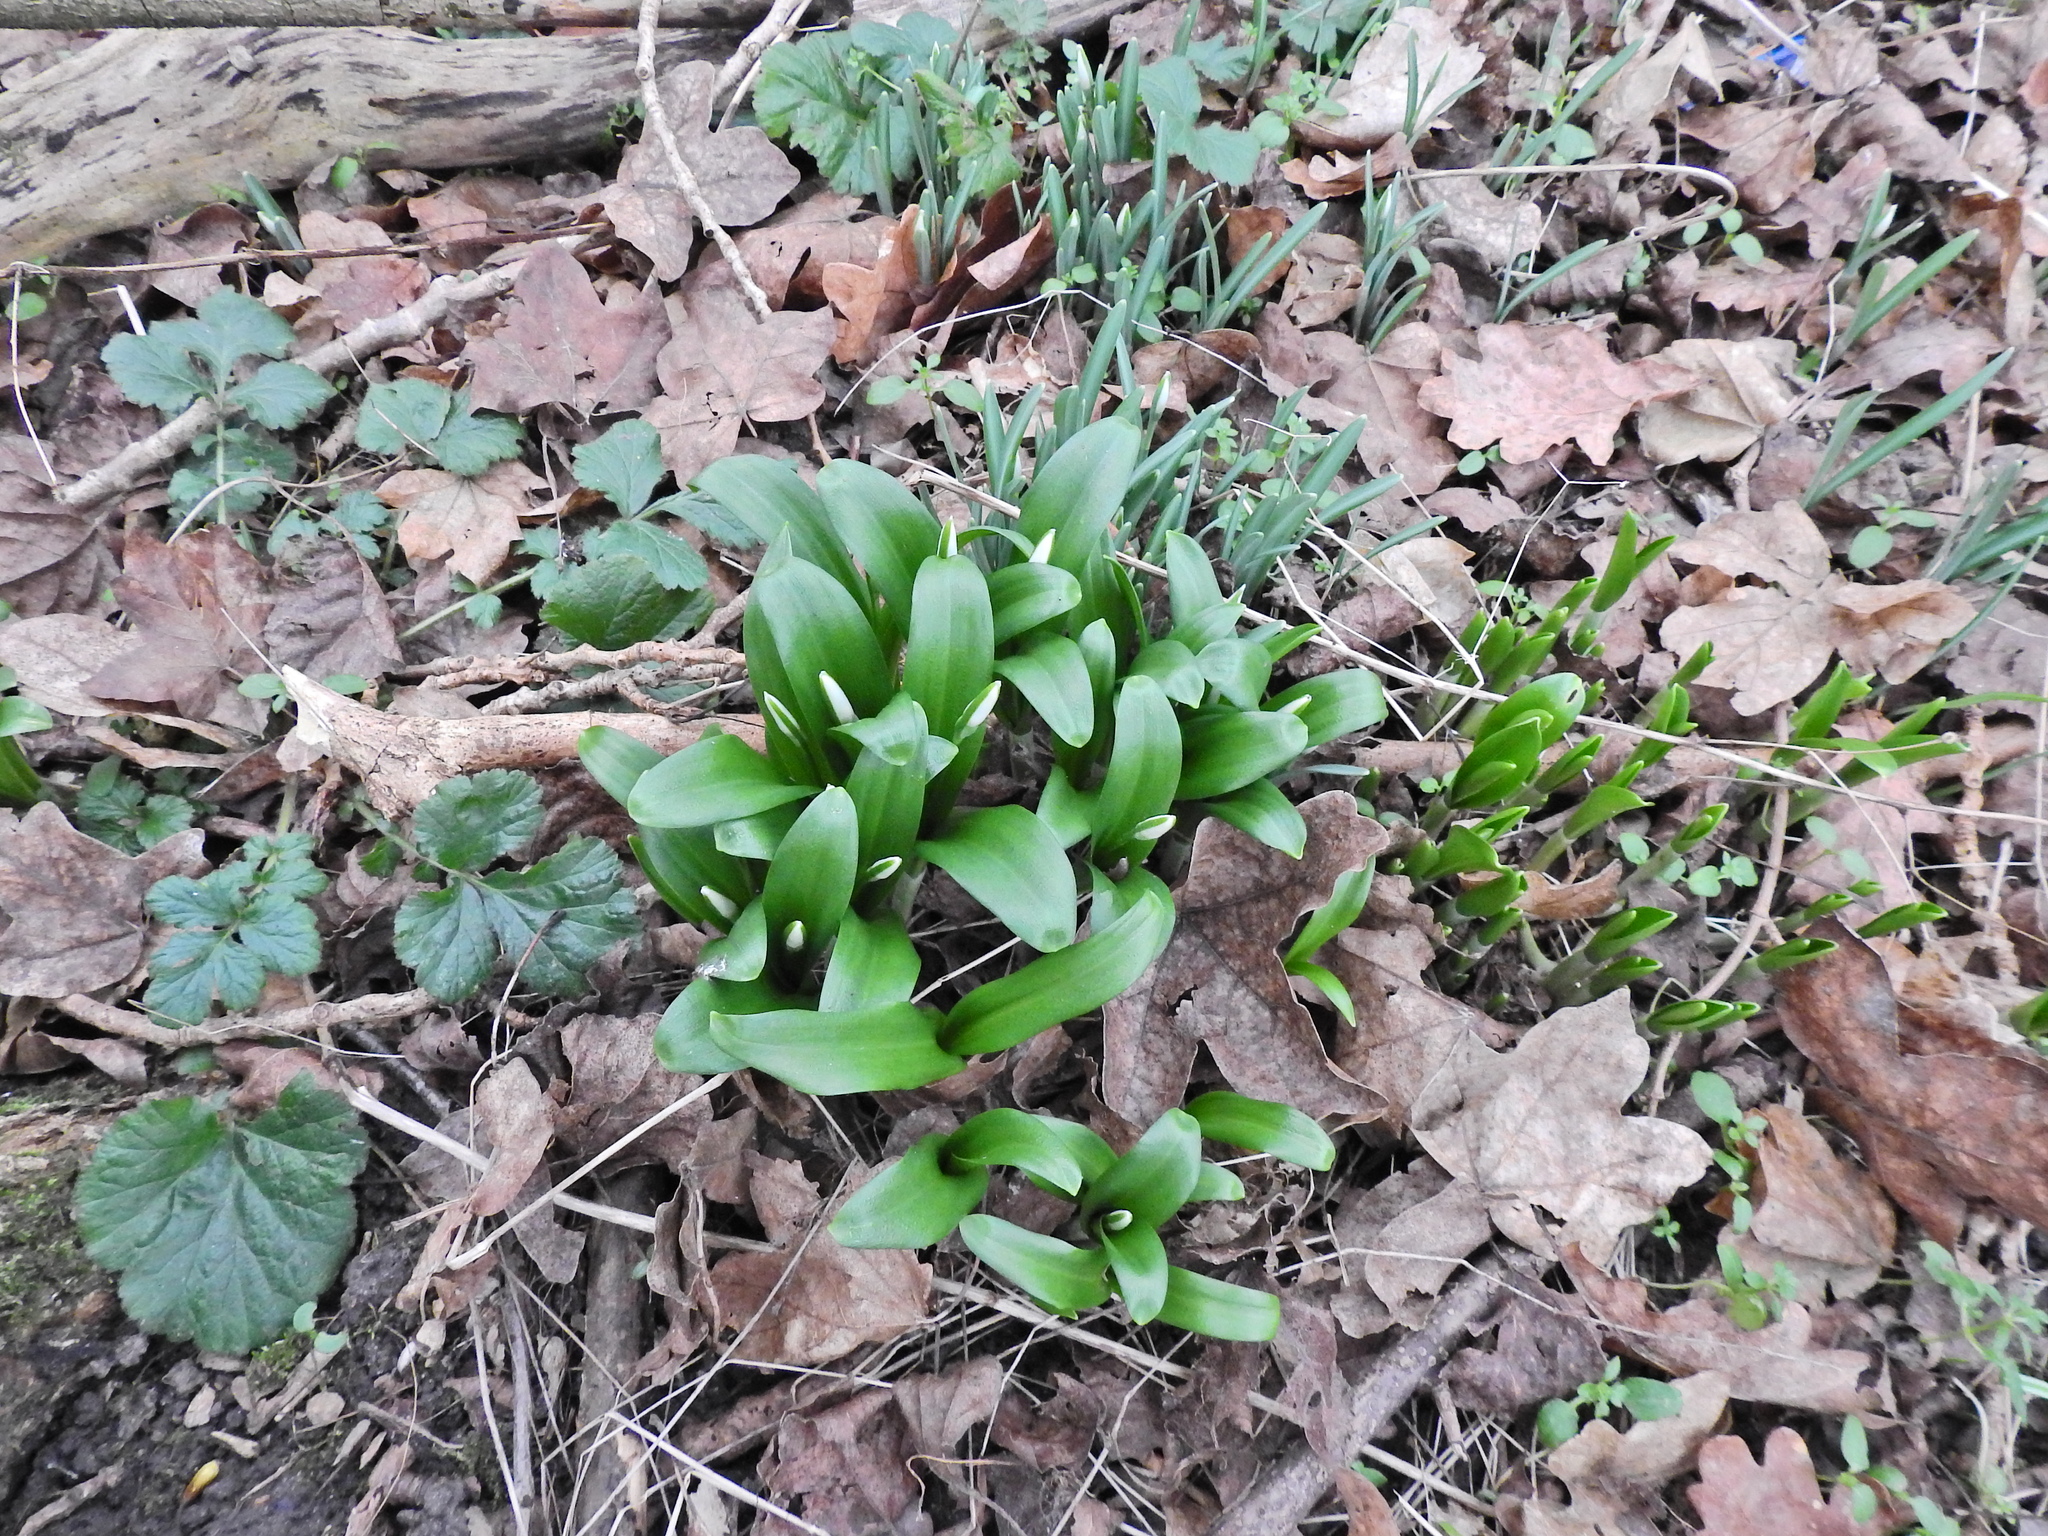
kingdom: Plantae
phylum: Tracheophyta
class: Liliopsida
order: Asparagales
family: Amaryllidaceae
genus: Galanthus
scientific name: Galanthus woronowii
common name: Green snowdrop
